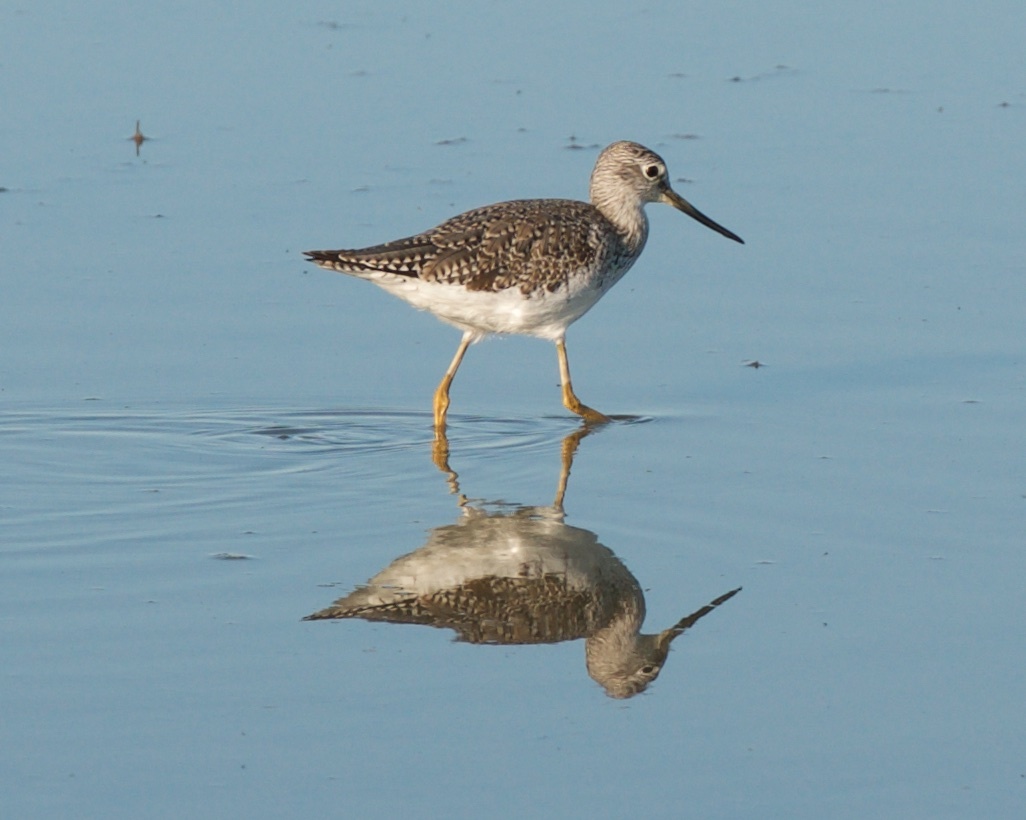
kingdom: Animalia
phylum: Chordata
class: Aves
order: Charadriiformes
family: Scolopacidae
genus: Tringa
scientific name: Tringa melanoleuca
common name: Greater yellowlegs
